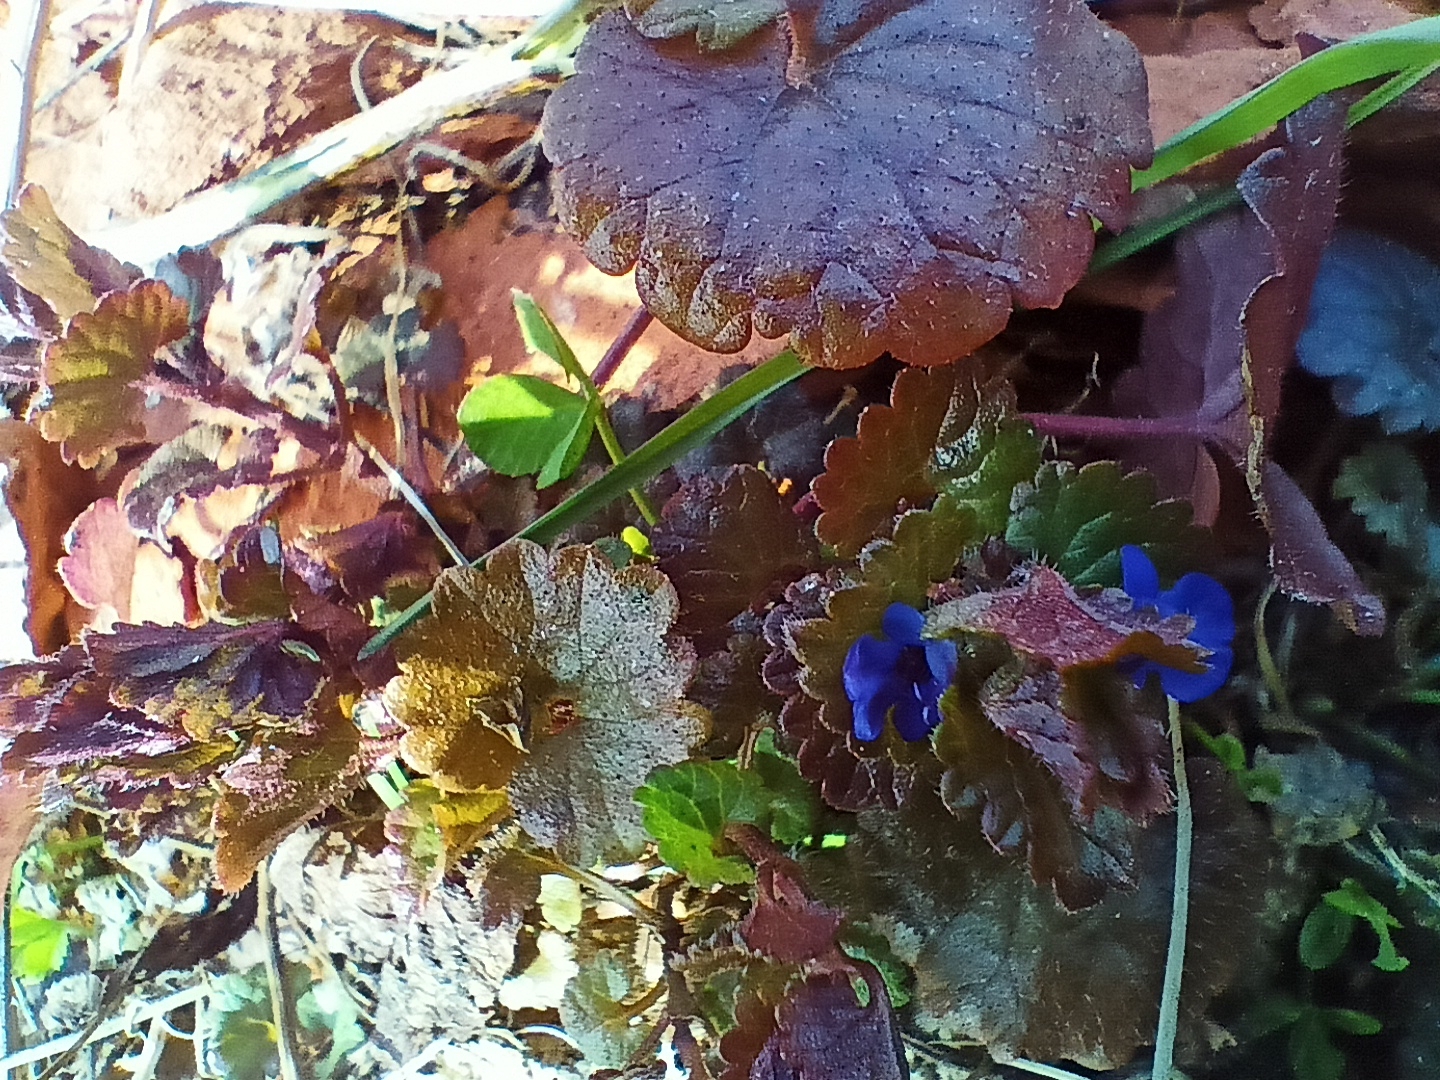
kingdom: Plantae
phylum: Tracheophyta
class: Magnoliopsida
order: Lamiales
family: Lamiaceae
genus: Glechoma
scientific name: Glechoma hederacea
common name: Ground ivy
